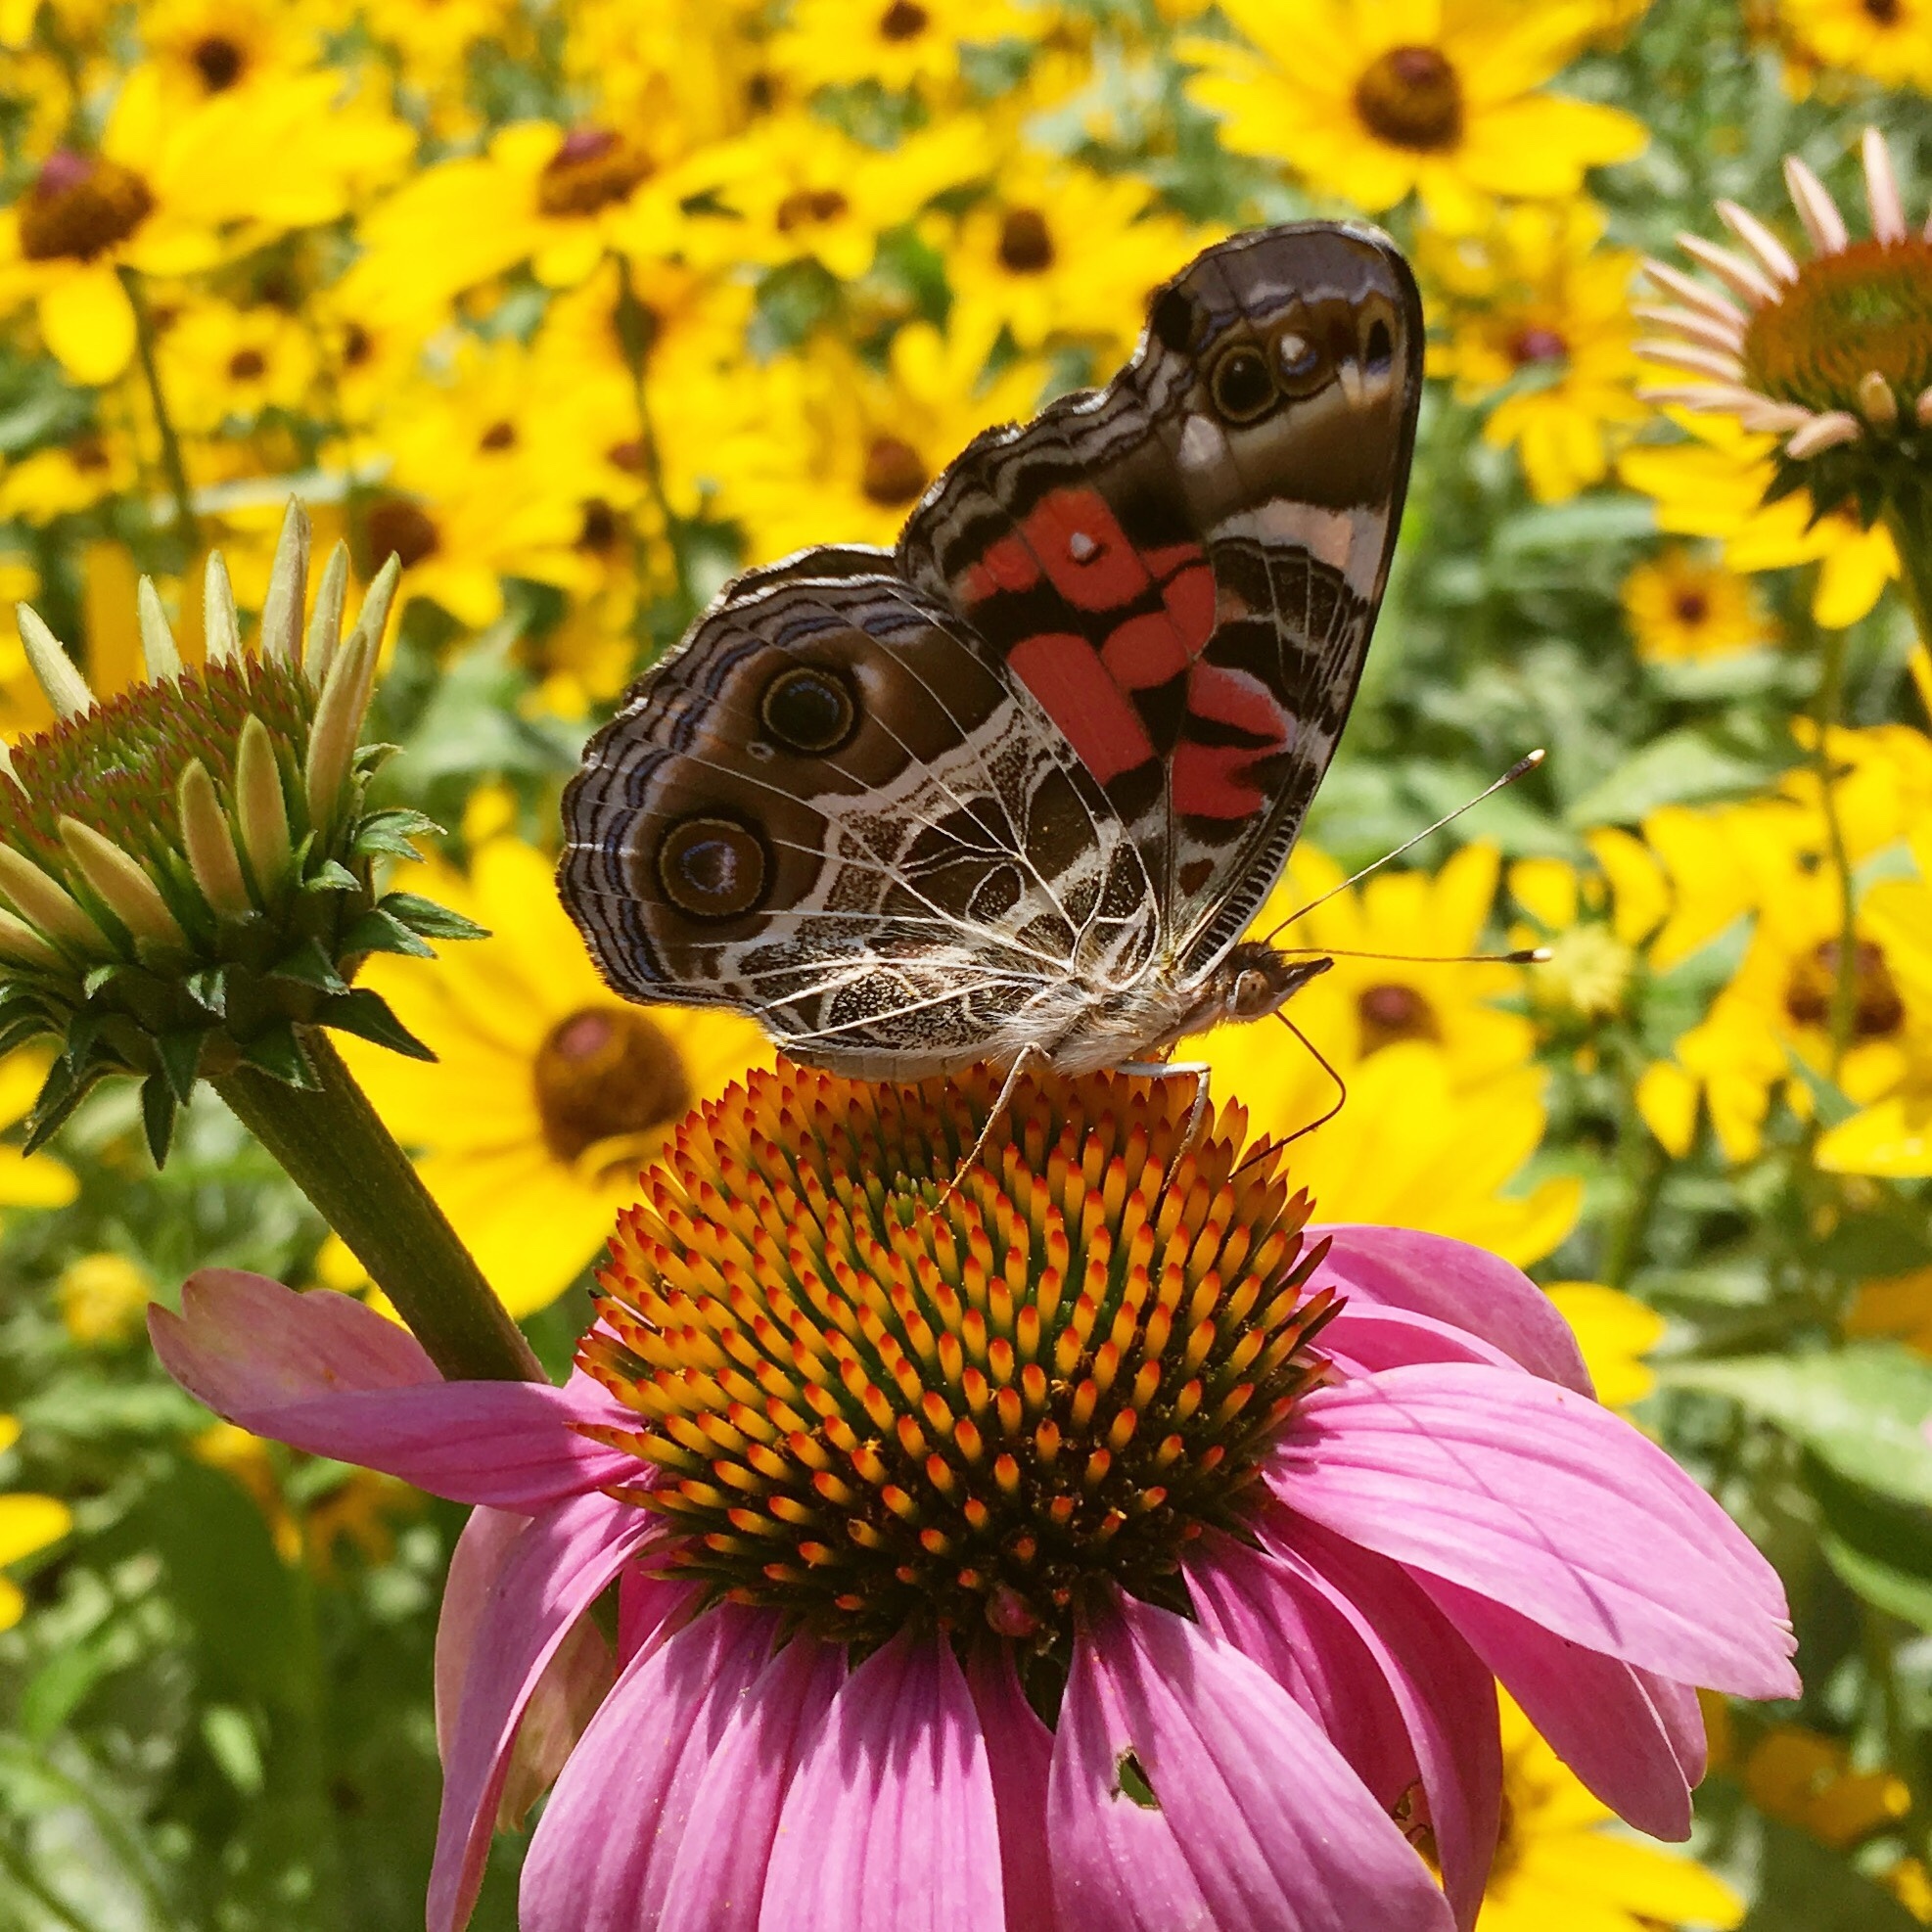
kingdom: Animalia
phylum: Arthropoda
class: Insecta
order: Lepidoptera
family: Nymphalidae
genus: Vanessa
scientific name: Vanessa virginiensis
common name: American lady
